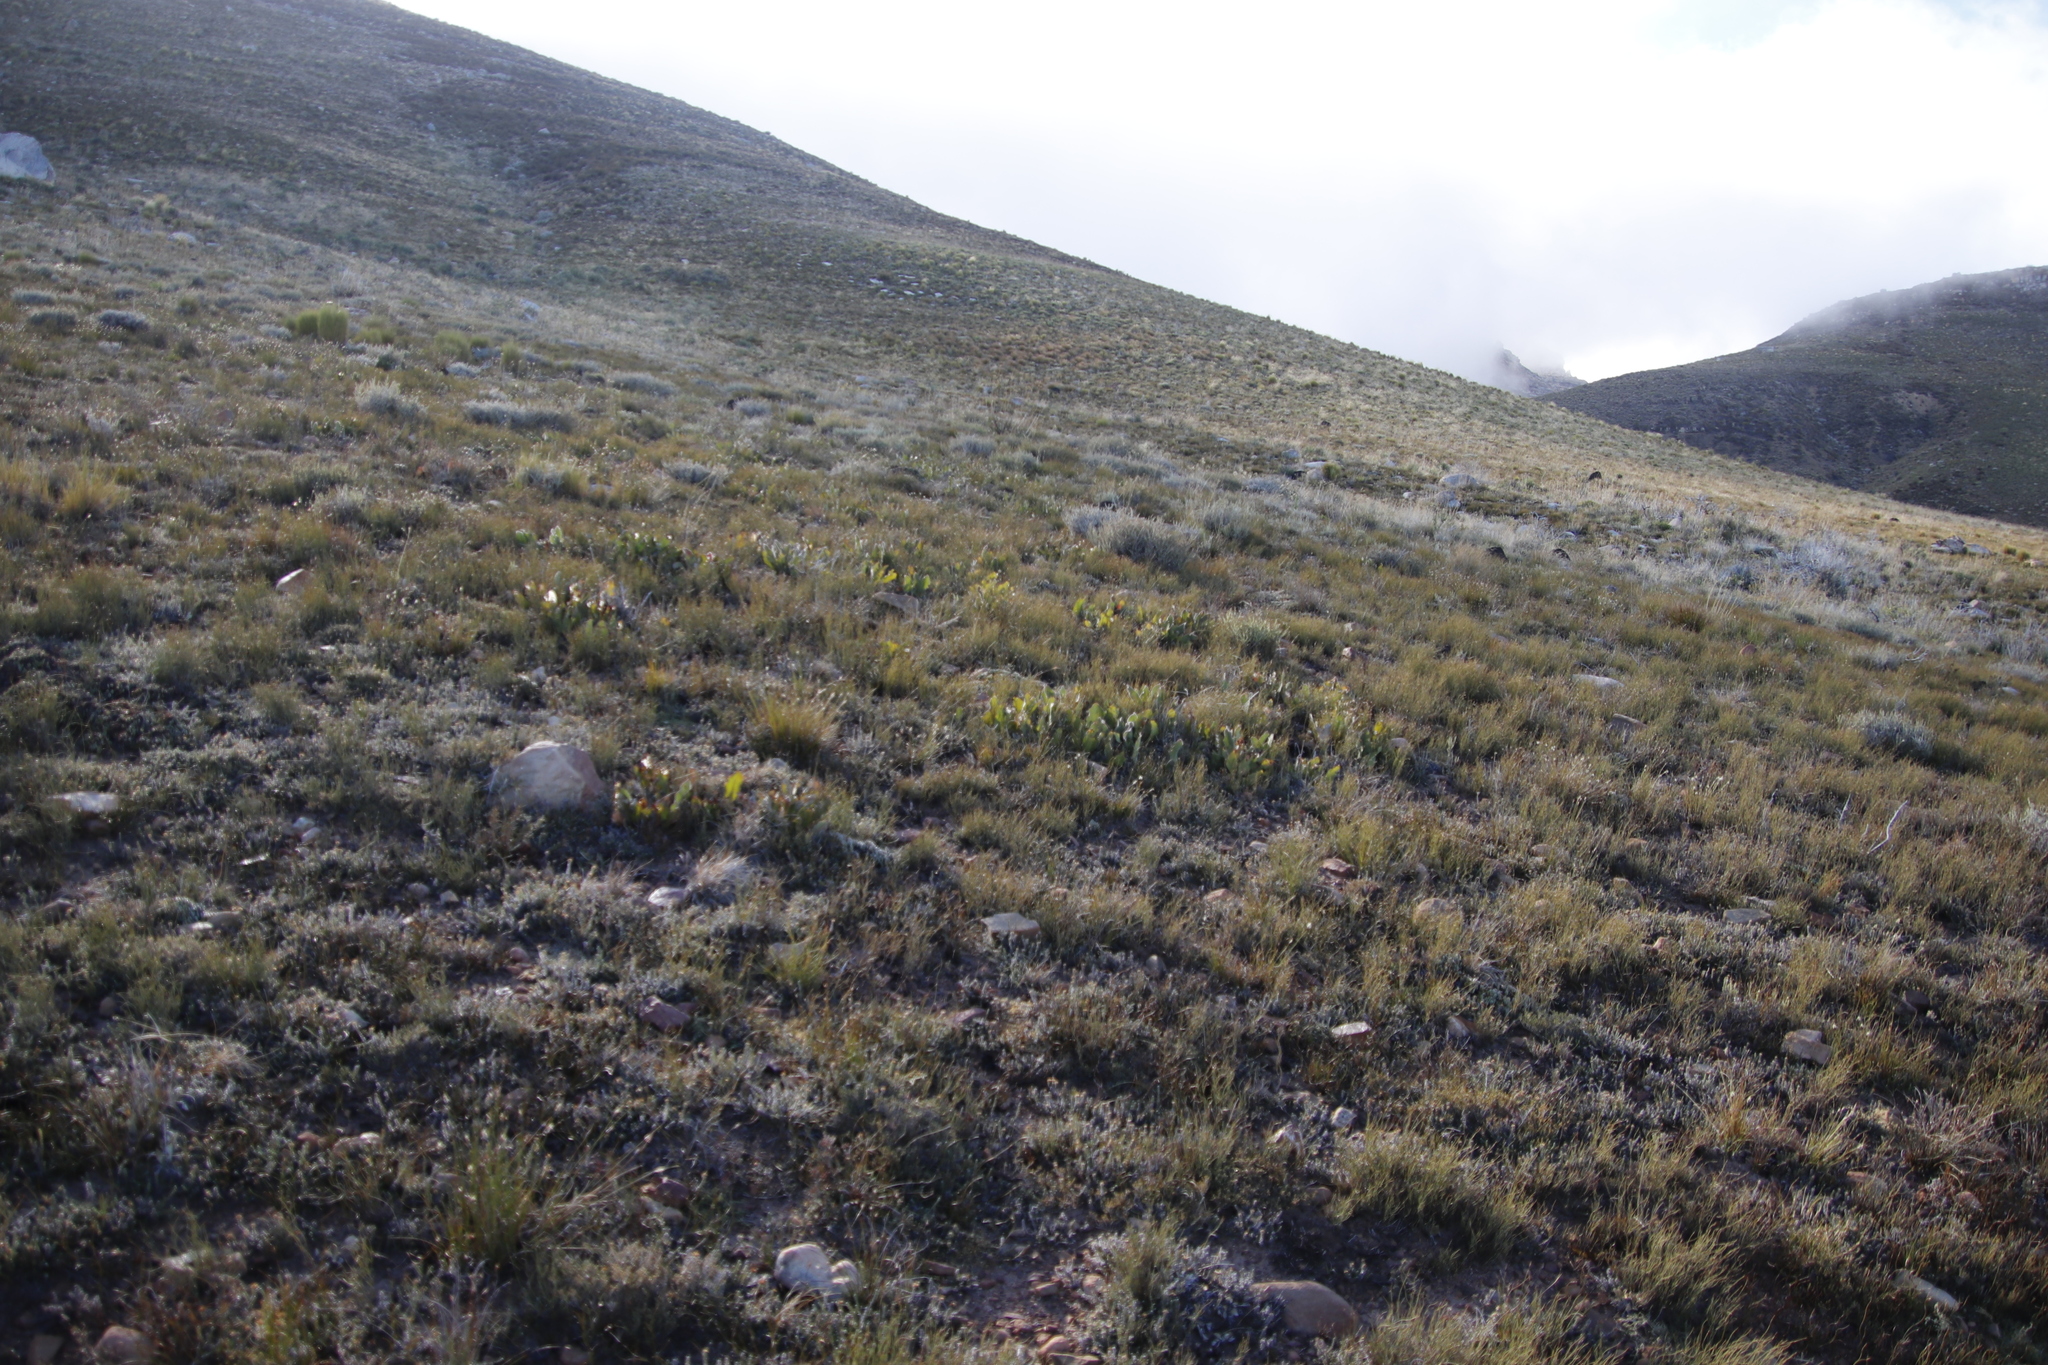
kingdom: Plantae
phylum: Tracheophyta
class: Magnoliopsida
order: Proteales
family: Proteaceae
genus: Protea
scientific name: Protea scolopendriifolia
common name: Harts-tongue-fern sugarbush
